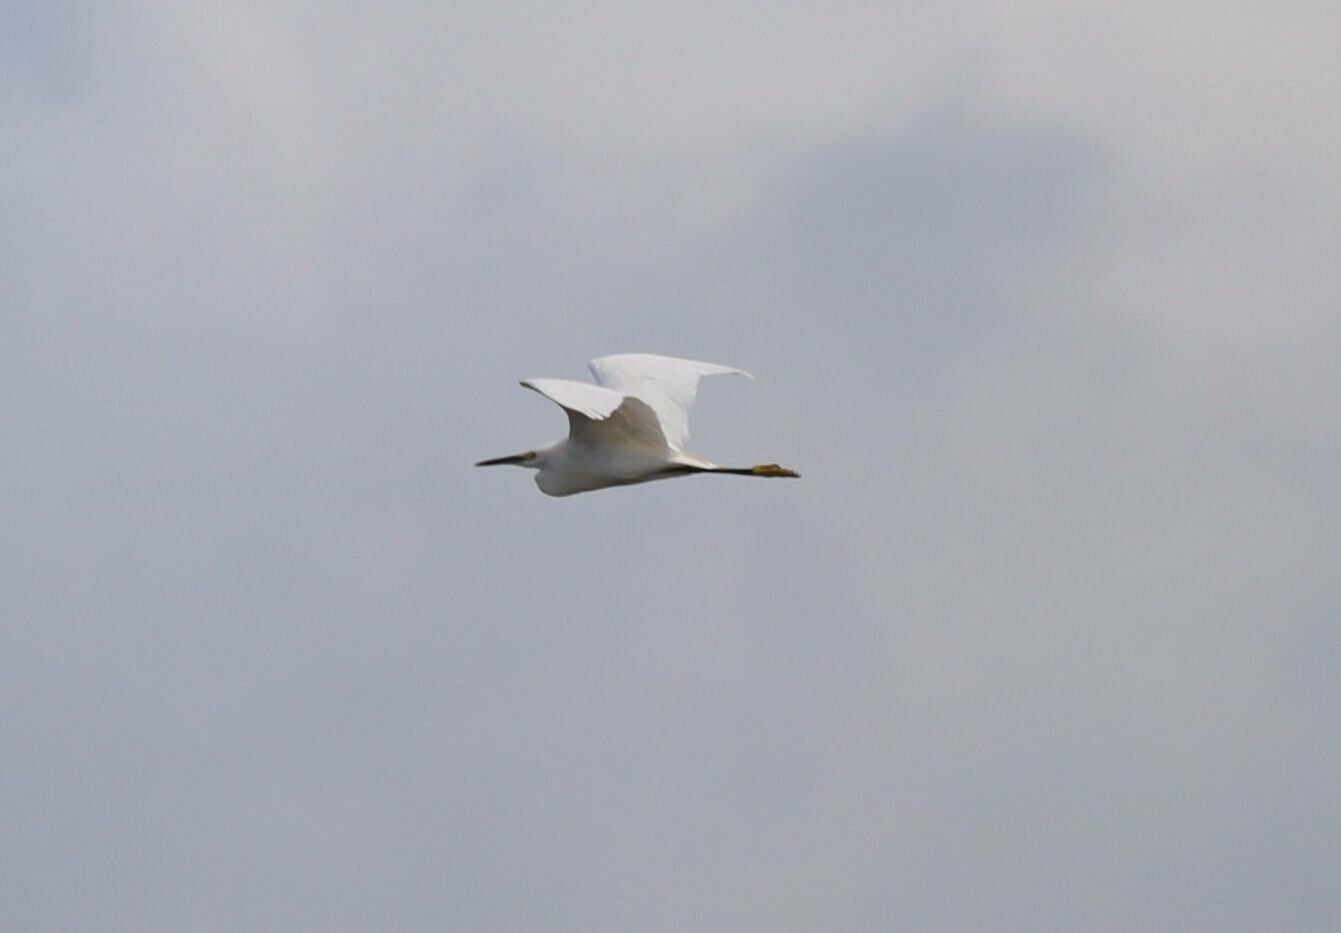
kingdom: Animalia
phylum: Chordata
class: Aves
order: Pelecaniformes
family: Ardeidae
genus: Egretta
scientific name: Egretta thula
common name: Snowy egret
